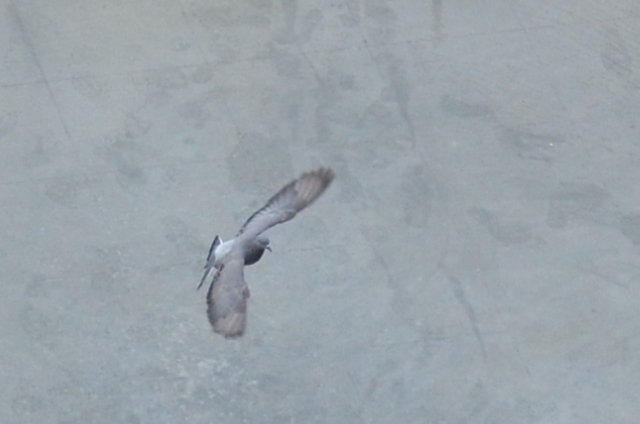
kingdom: Animalia
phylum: Chordata
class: Aves
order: Columbiformes
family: Columbidae
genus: Columba
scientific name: Columba livia
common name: Rock pigeon
